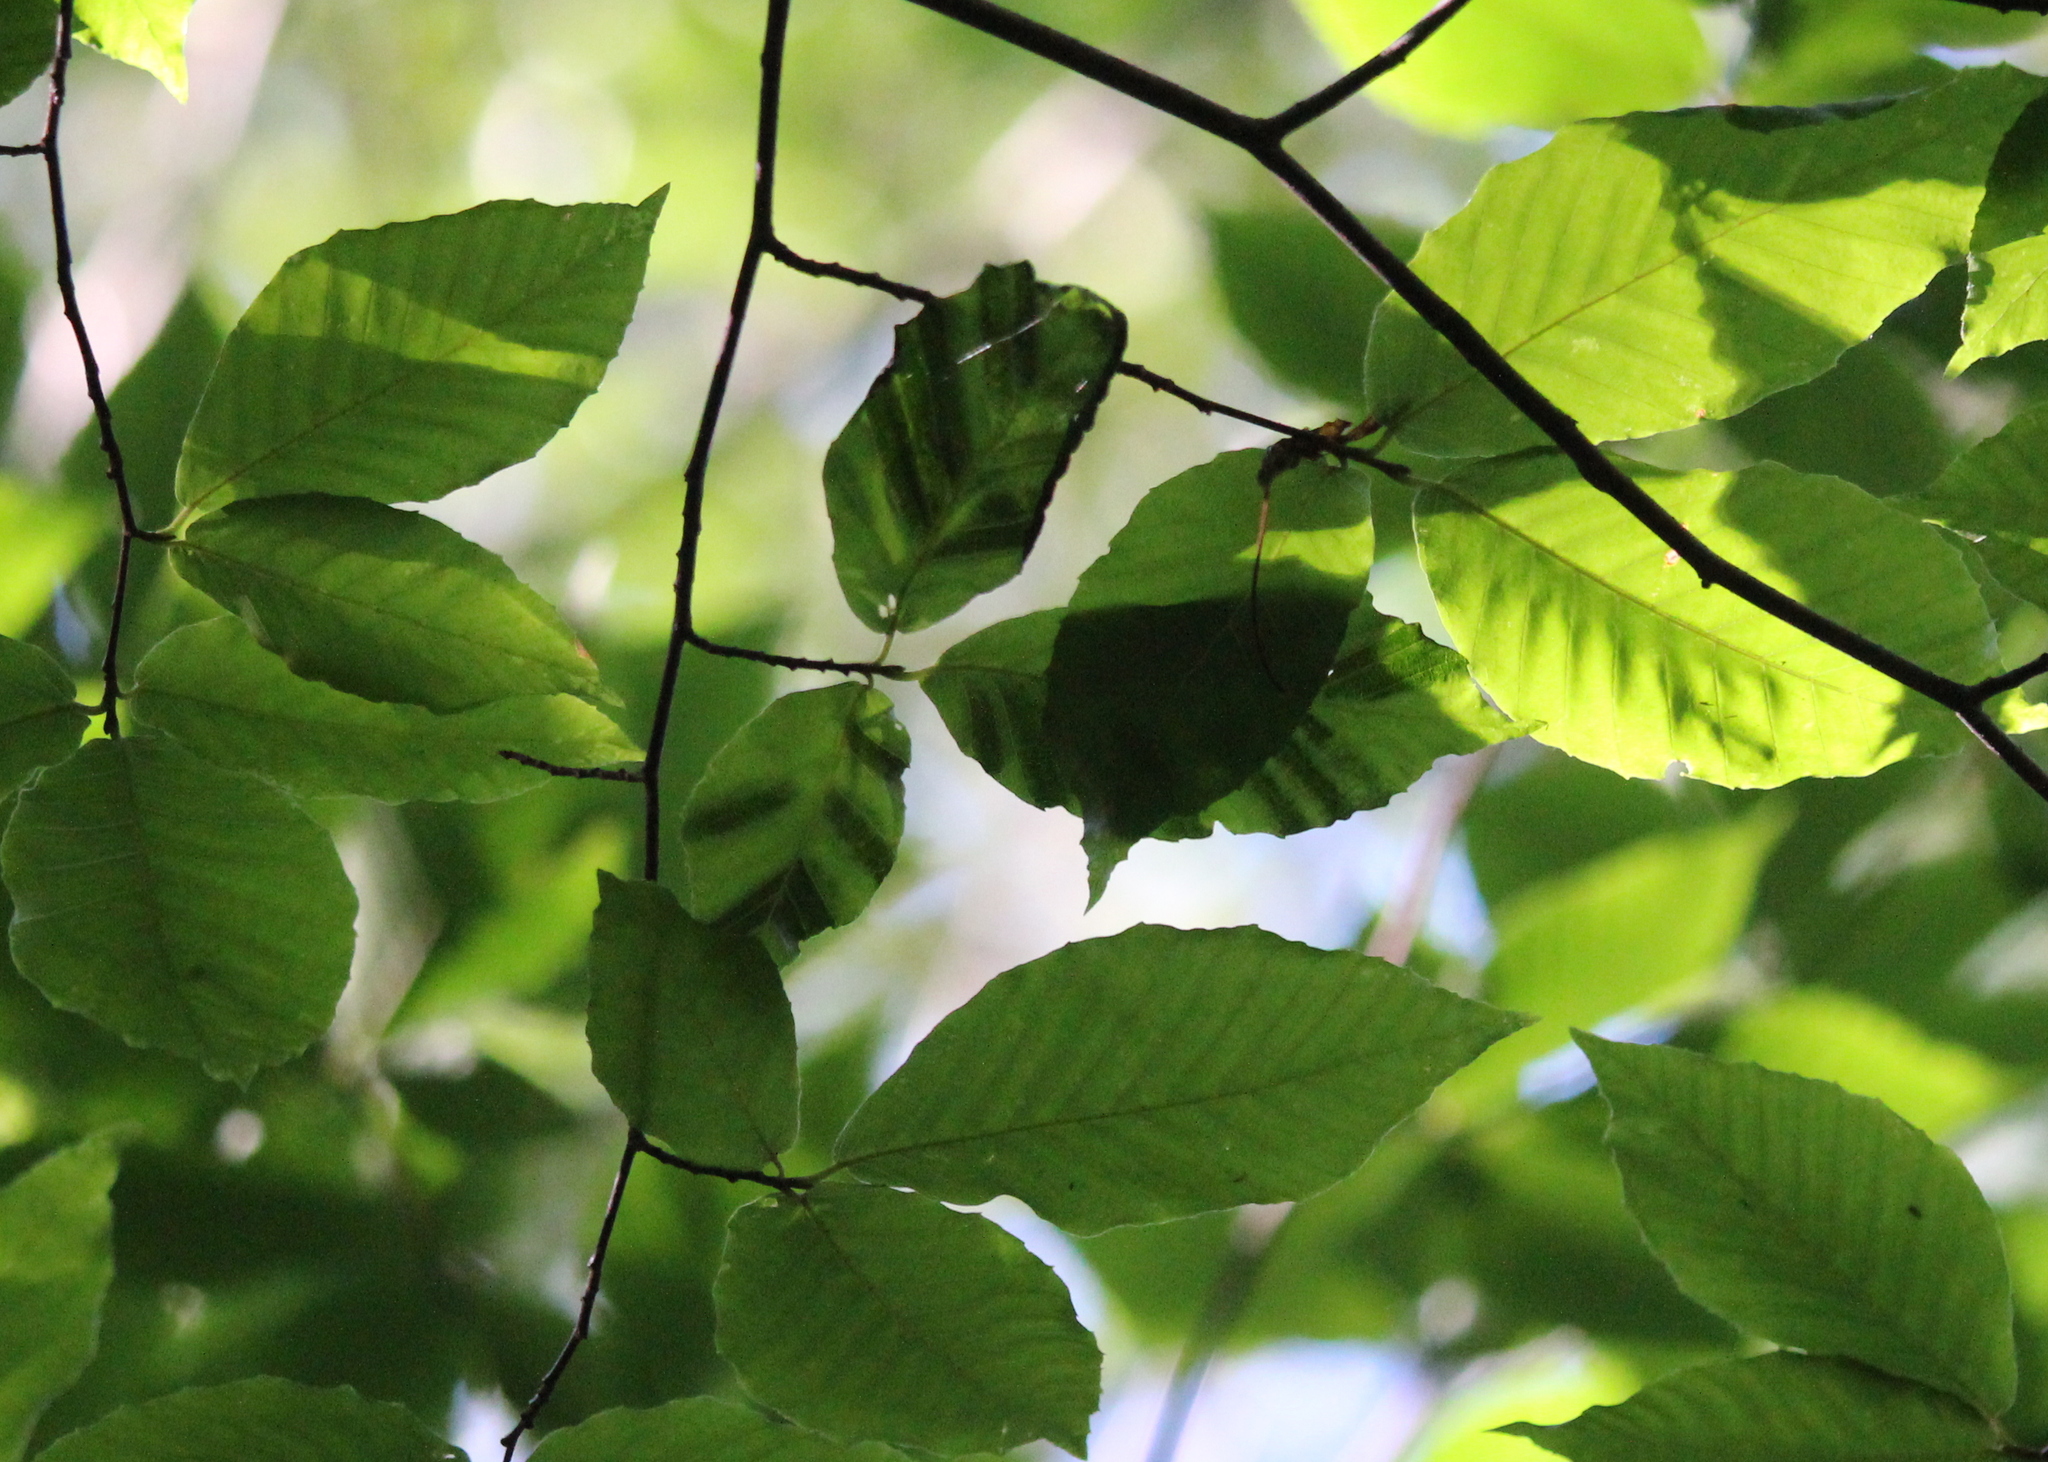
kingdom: Animalia
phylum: Nematoda
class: Chromadorea
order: Rhabditida
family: Anguinidae
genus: Litylenchus
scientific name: Litylenchus crenatae
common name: Beech leaf disease
